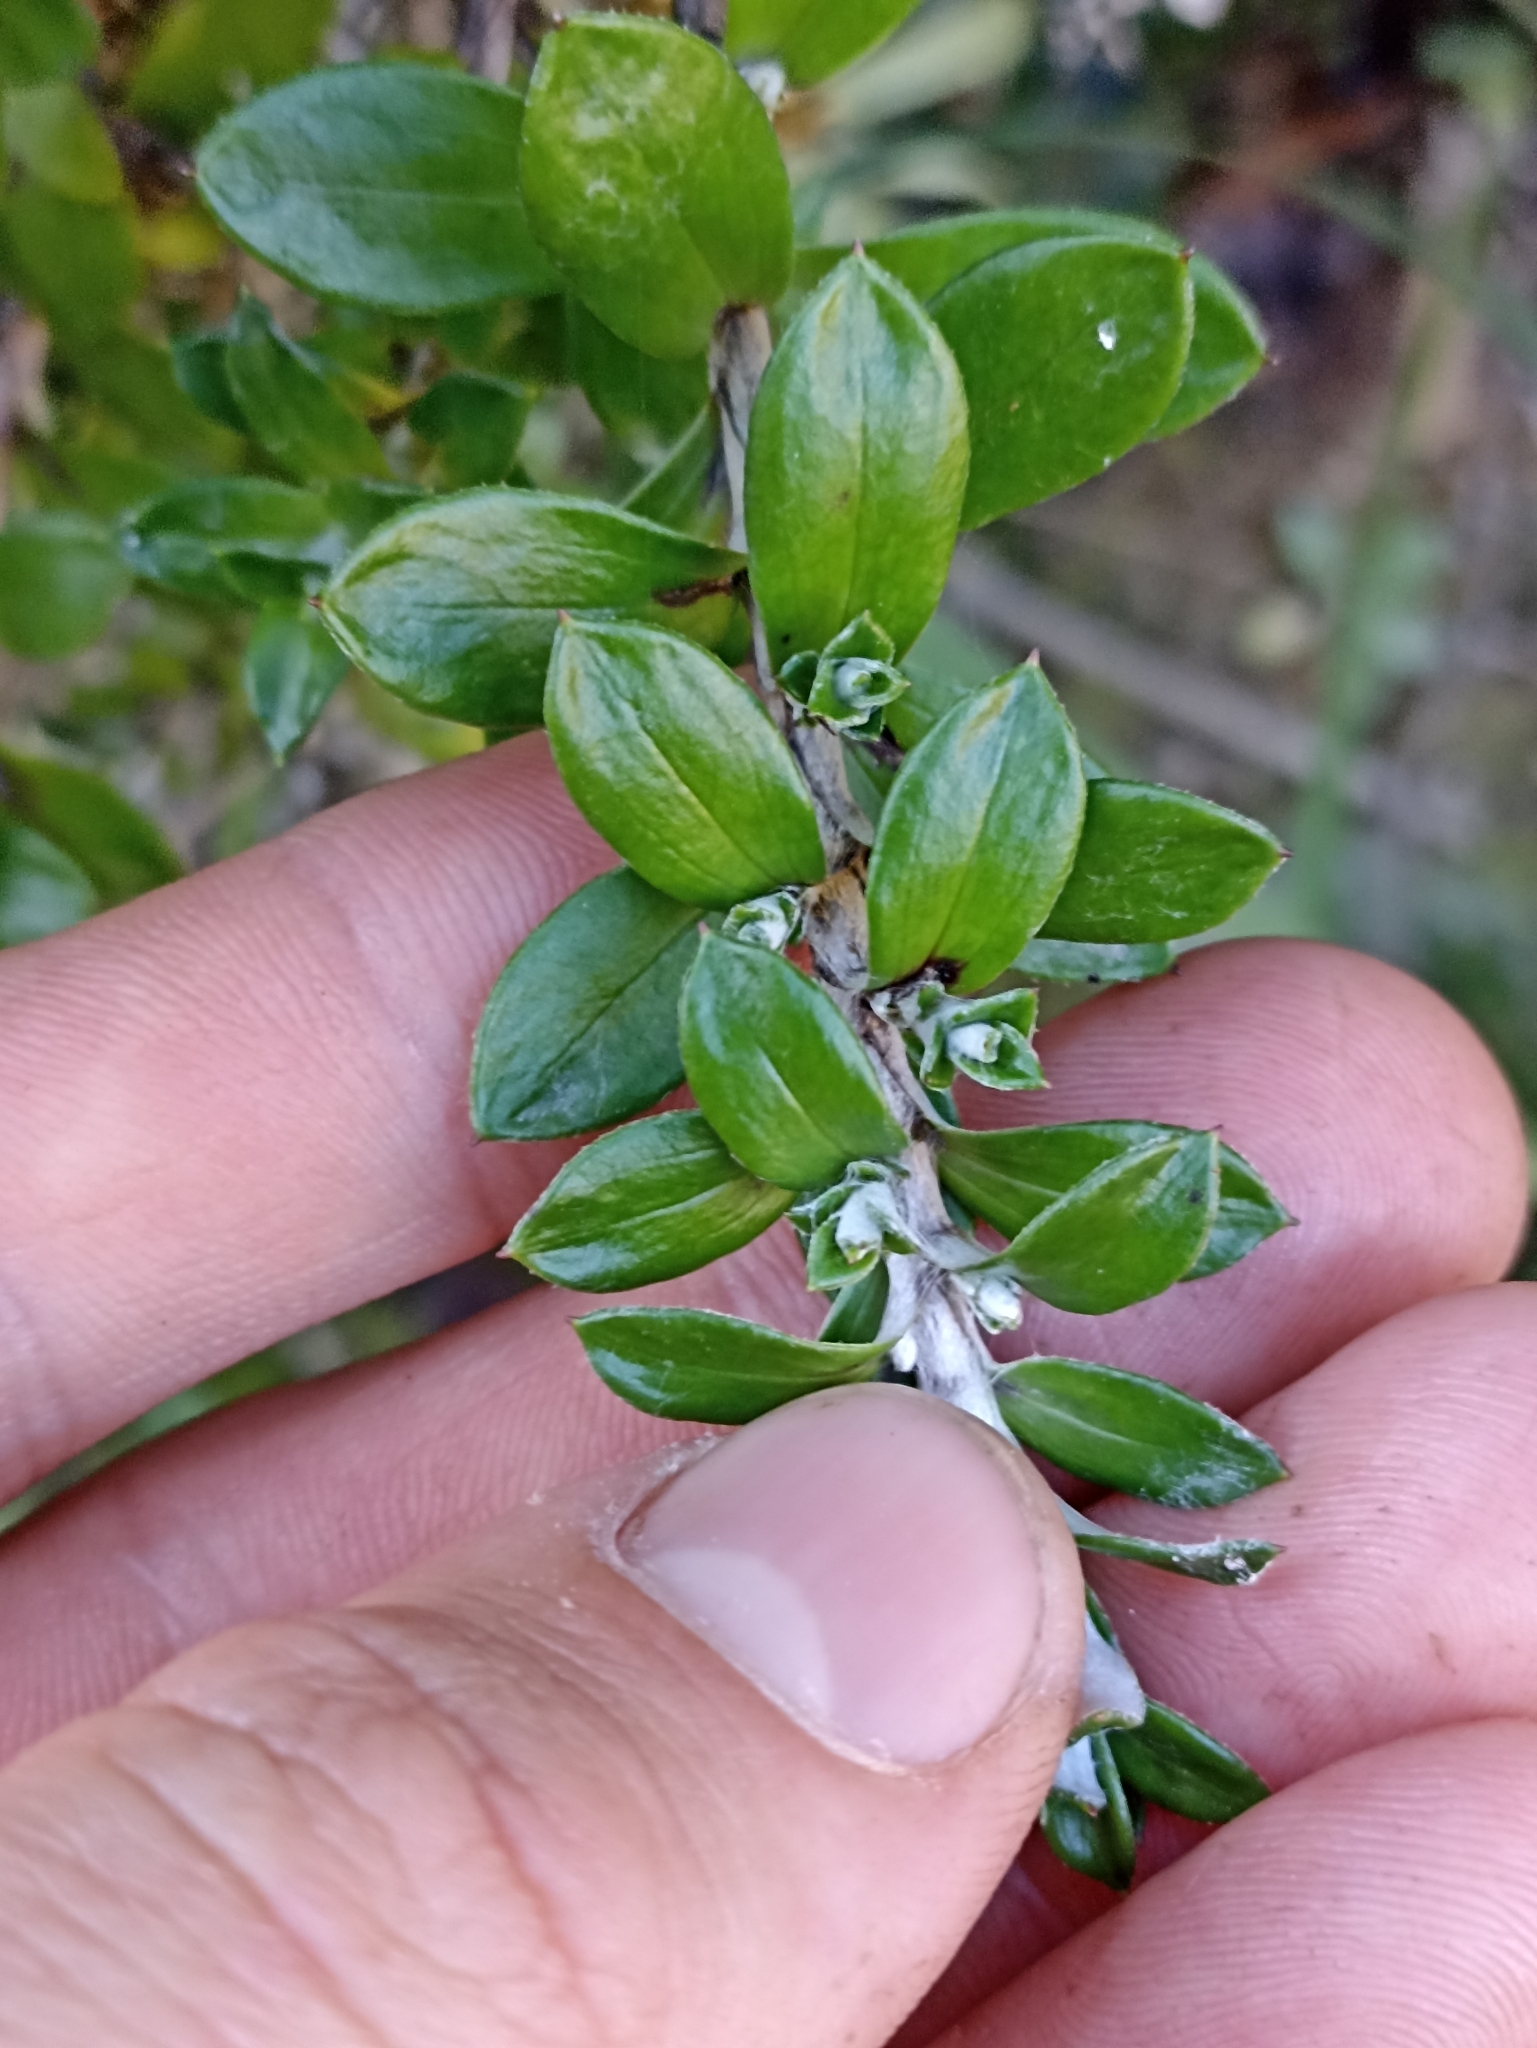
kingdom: Plantae
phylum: Tracheophyta
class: Magnoliopsida
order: Asterales
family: Asteraceae
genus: Anaphalioides
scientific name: Anaphalioides hookeri
